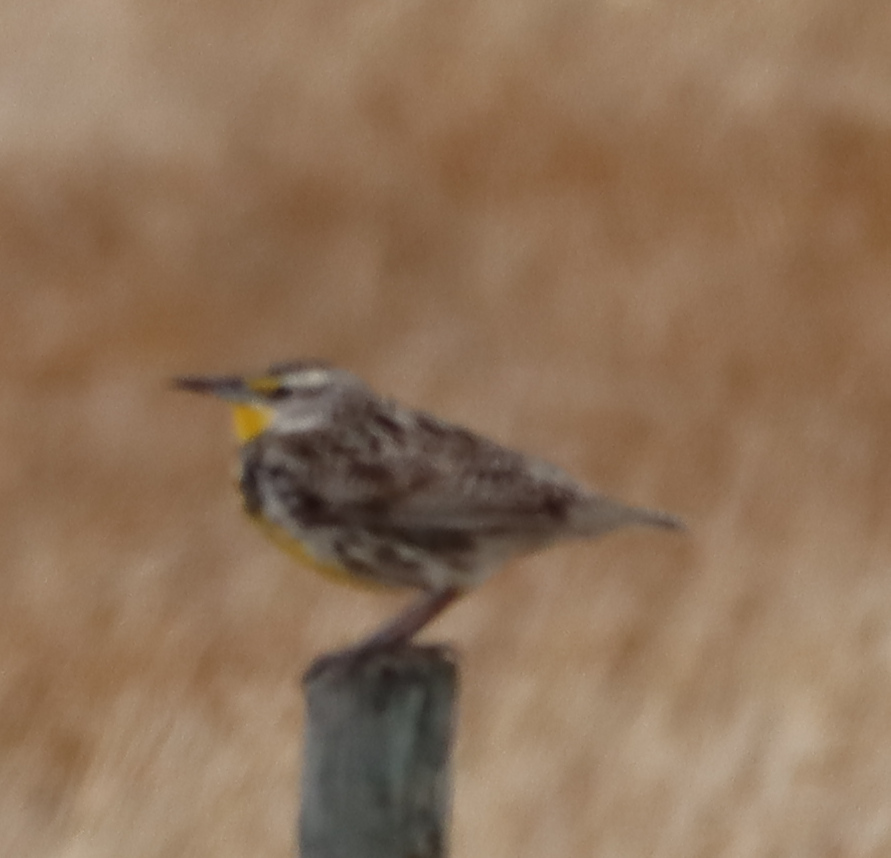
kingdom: Animalia
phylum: Chordata
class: Aves
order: Passeriformes
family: Icteridae
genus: Sturnella
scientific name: Sturnella neglecta
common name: Western meadowlark
